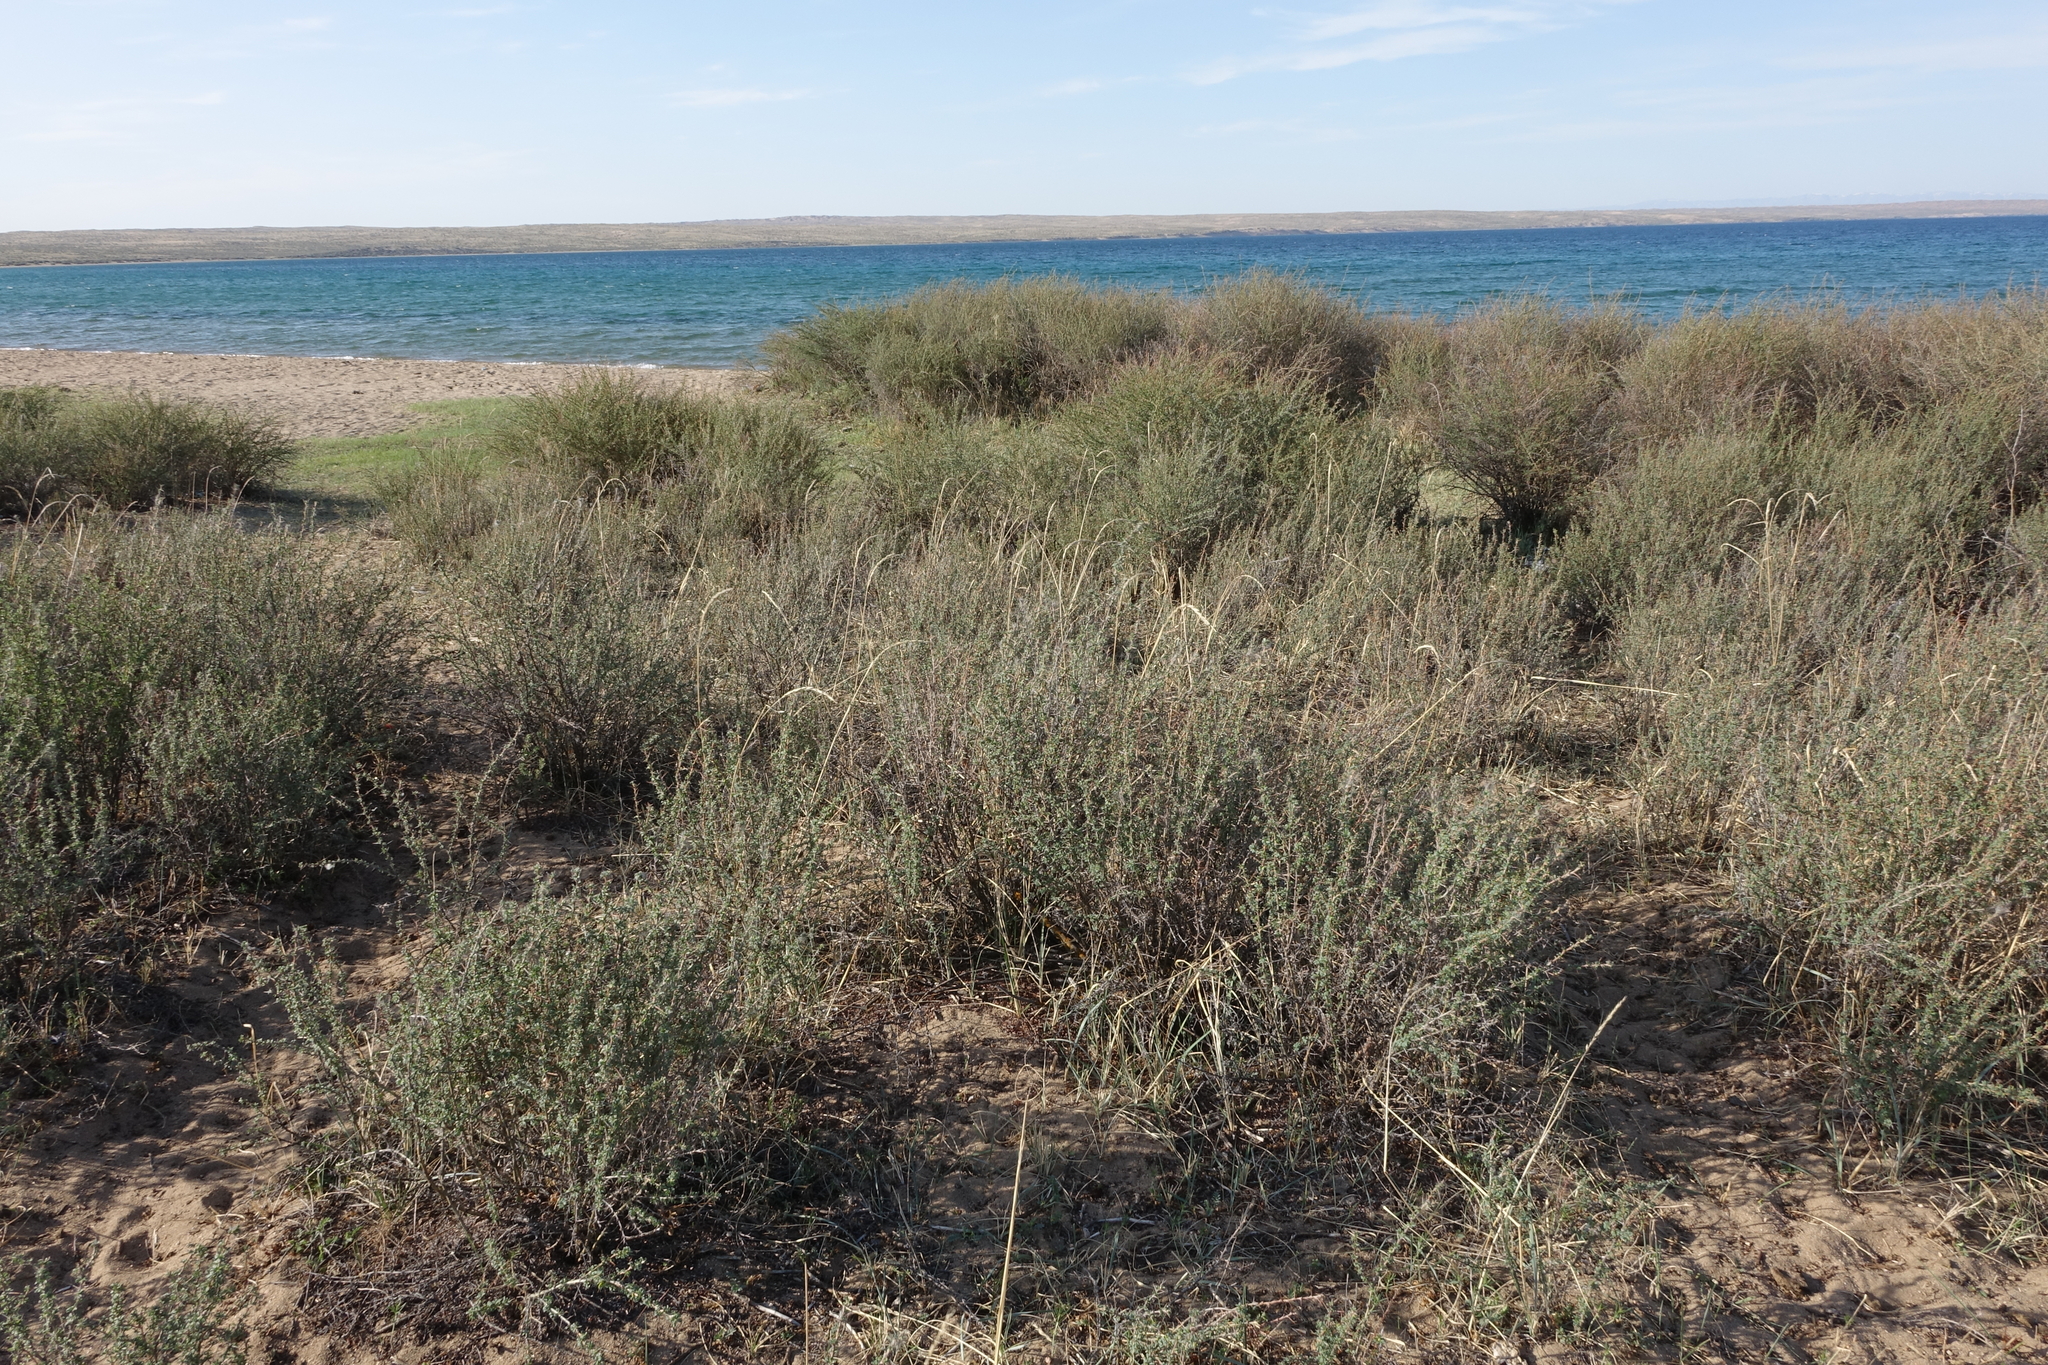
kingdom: Plantae
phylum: Tracheophyta
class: Magnoliopsida
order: Fabales
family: Fabaceae
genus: Caragana
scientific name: Caragana spinosa
